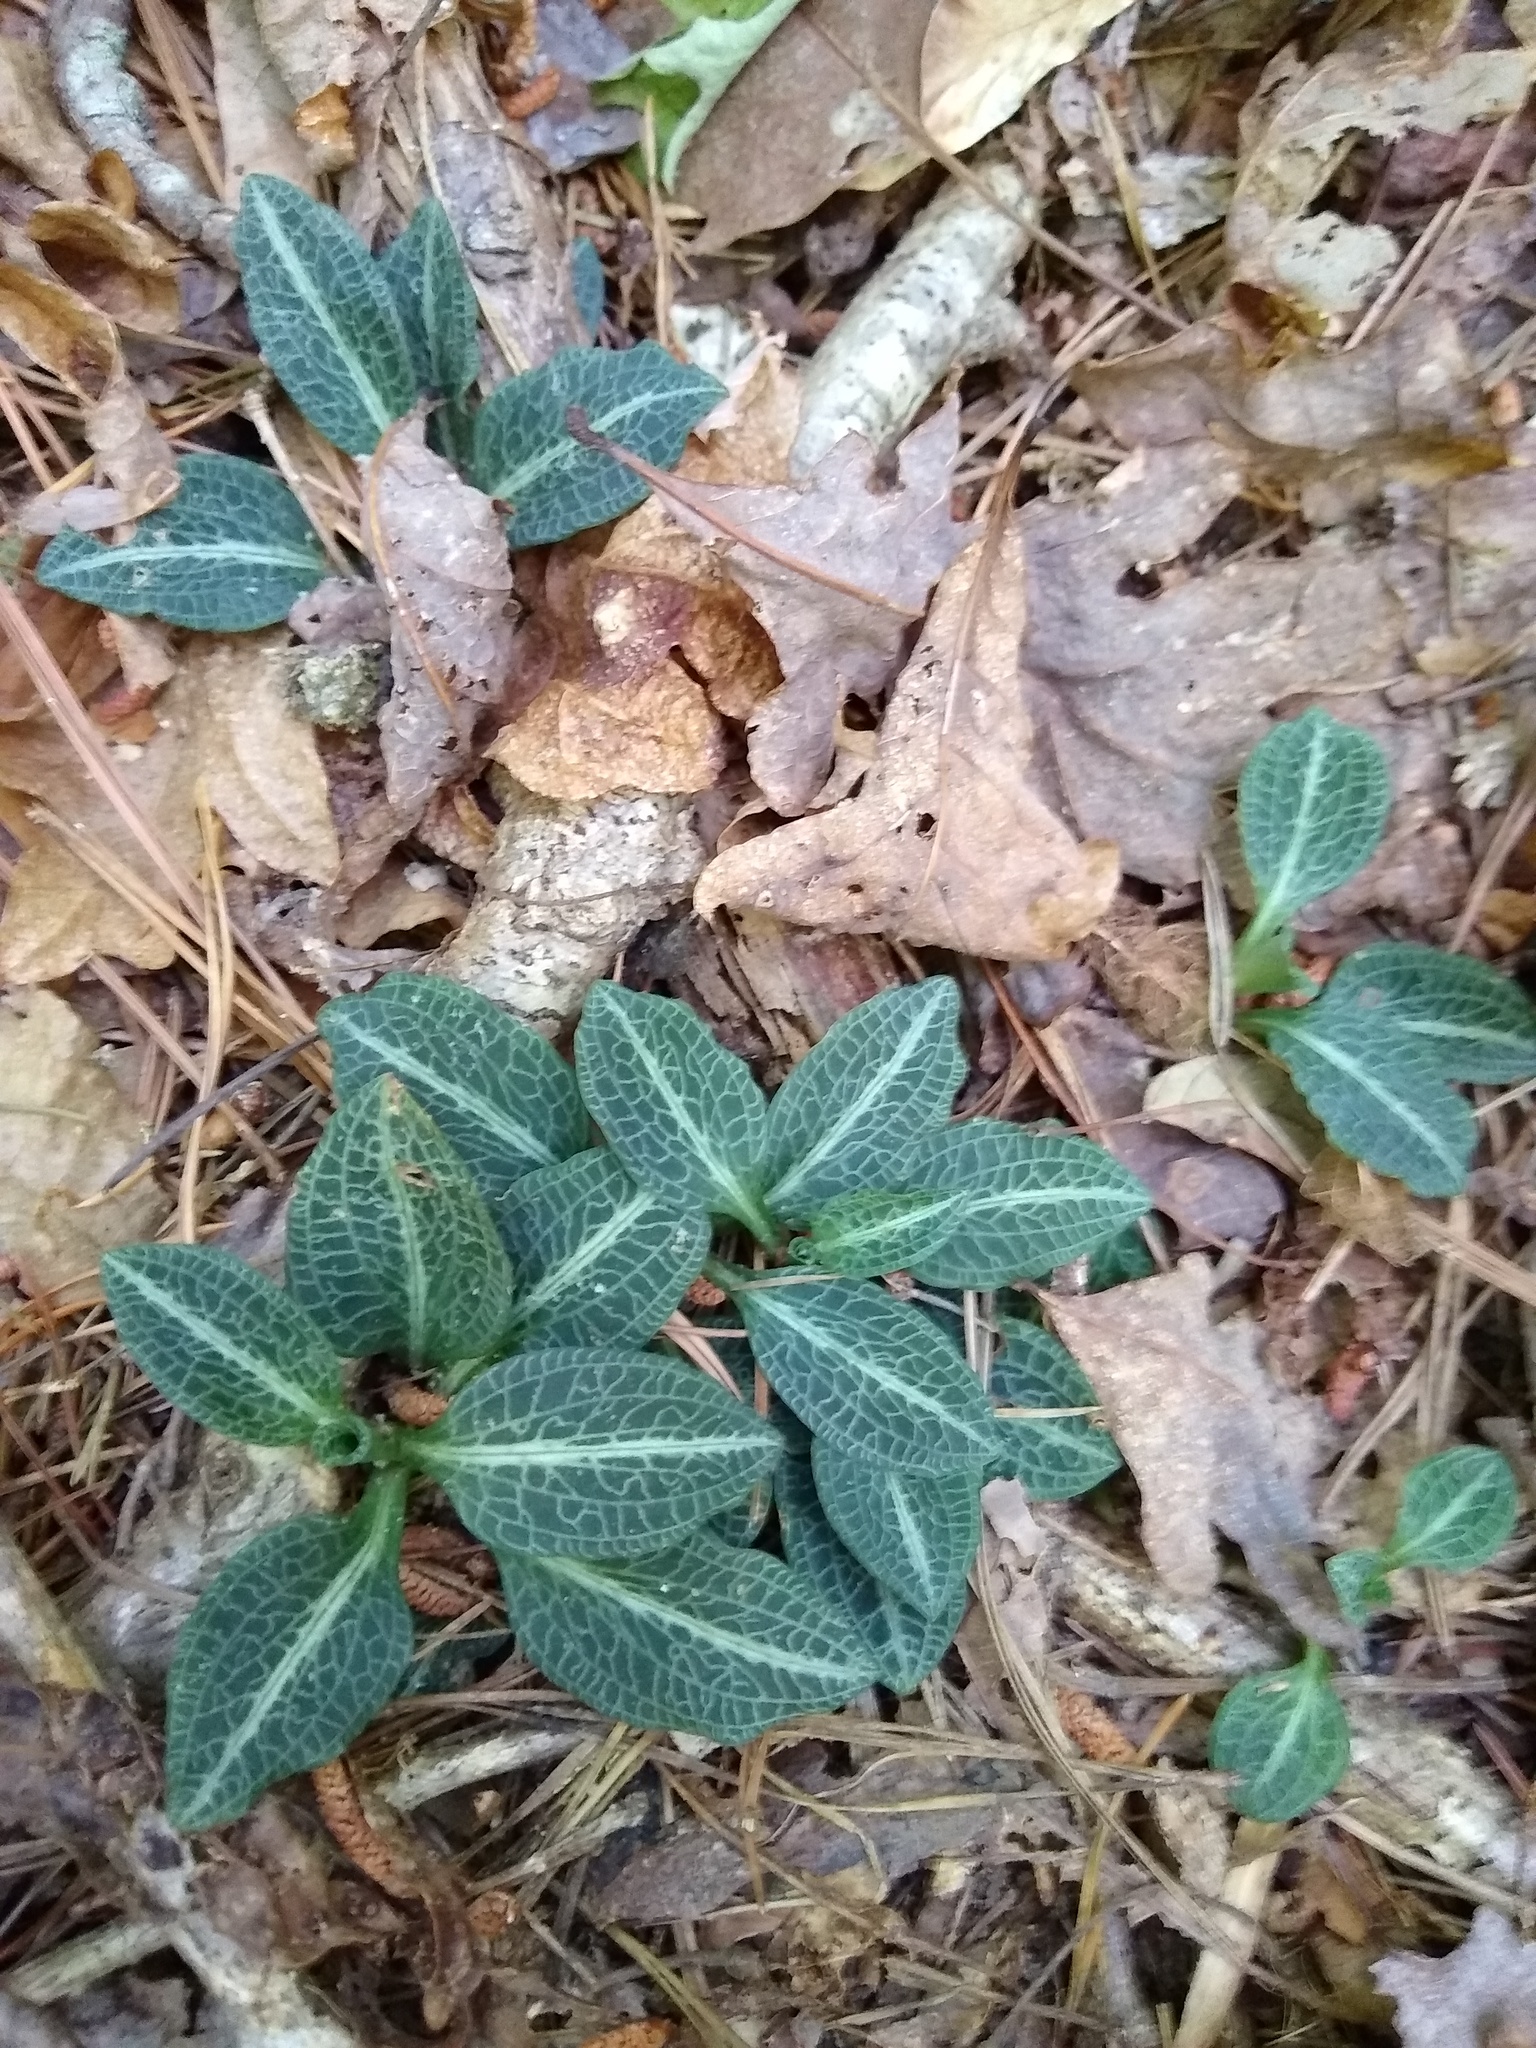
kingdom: Plantae
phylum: Tracheophyta
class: Liliopsida
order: Asparagales
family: Orchidaceae
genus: Goodyera
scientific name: Goodyera pubescens
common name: Downy rattlesnake-plantain
